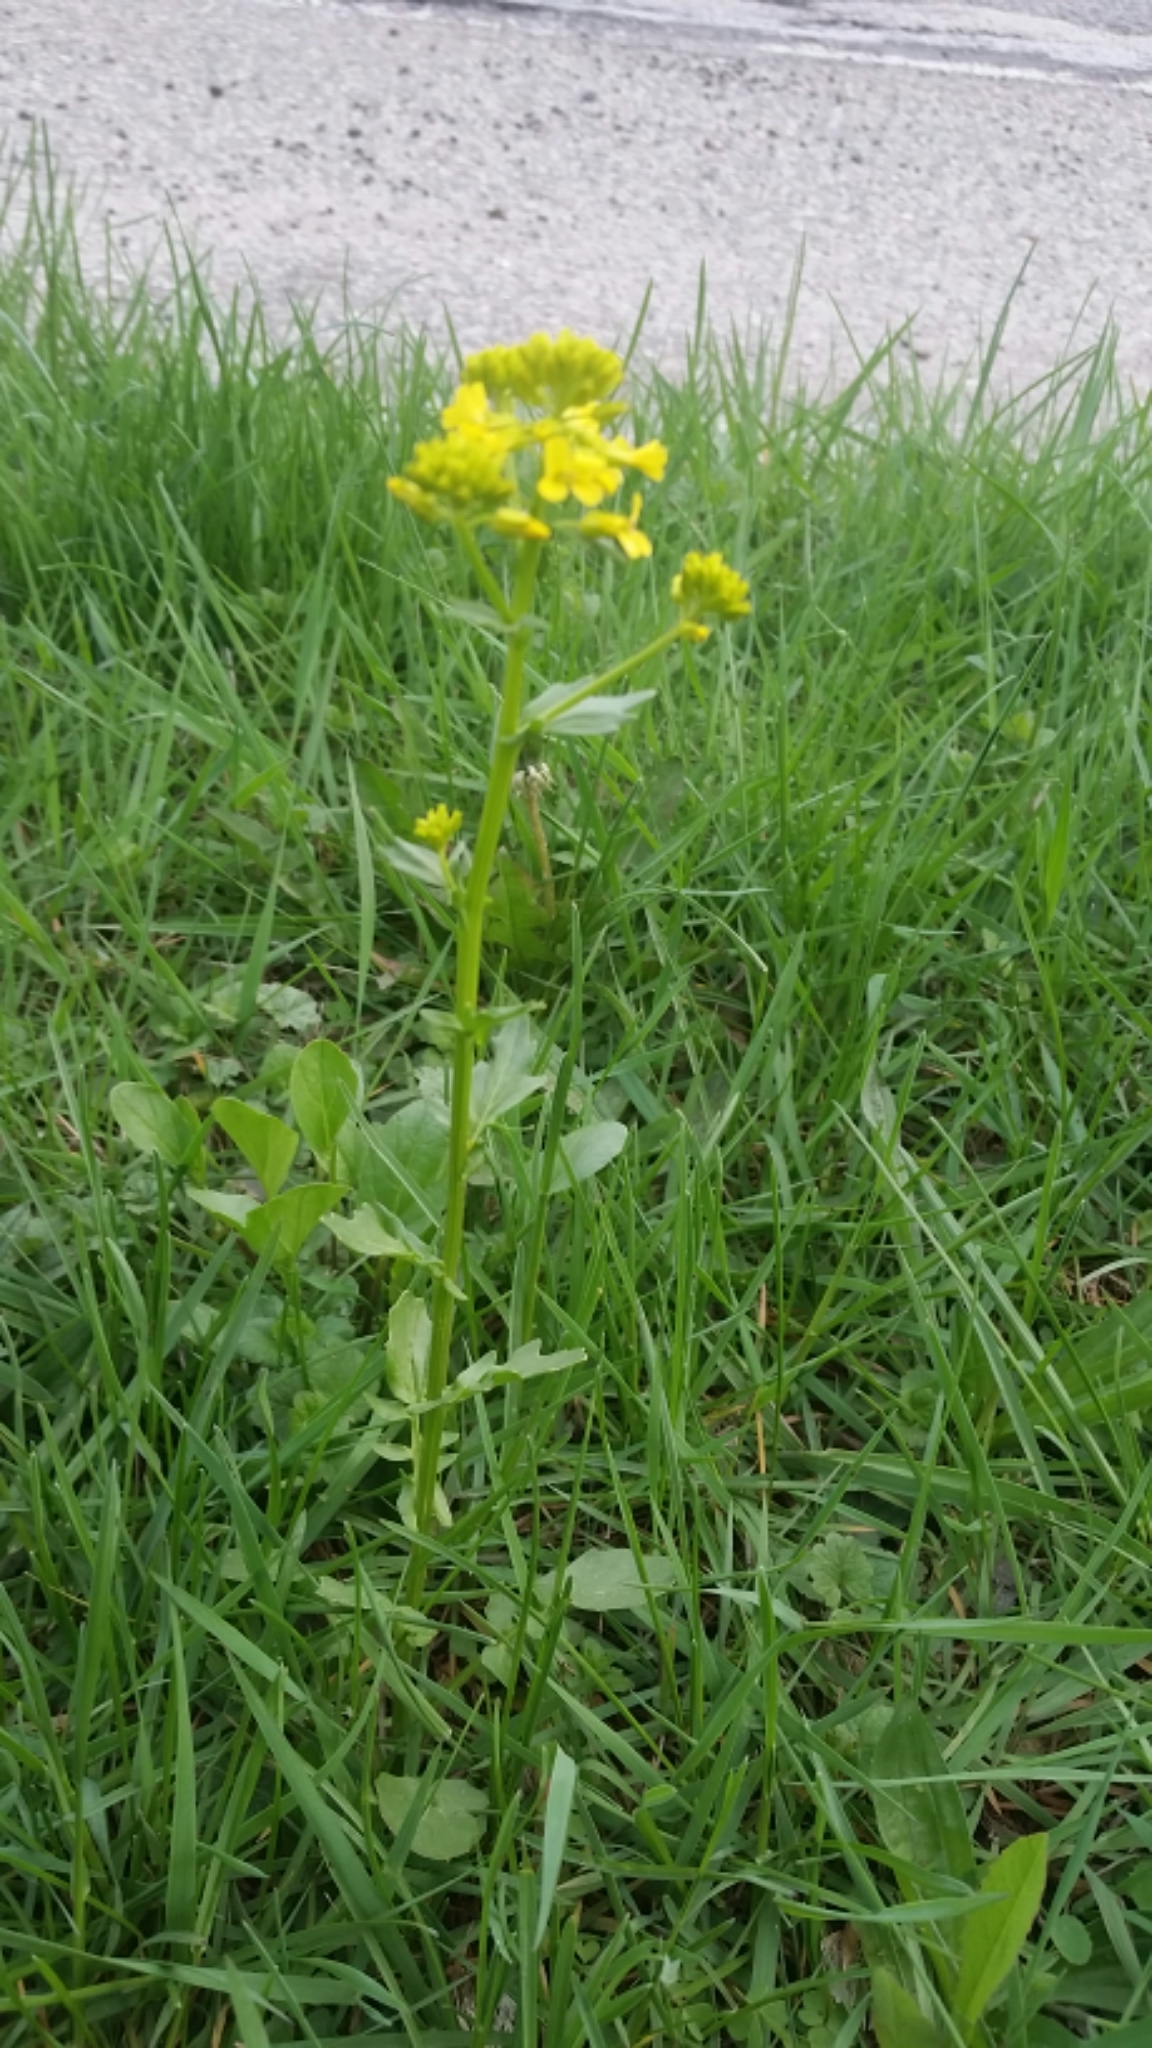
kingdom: Plantae
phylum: Tracheophyta
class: Magnoliopsida
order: Brassicales
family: Brassicaceae
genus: Barbarea
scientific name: Barbarea vulgaris
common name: Cressy-greens
